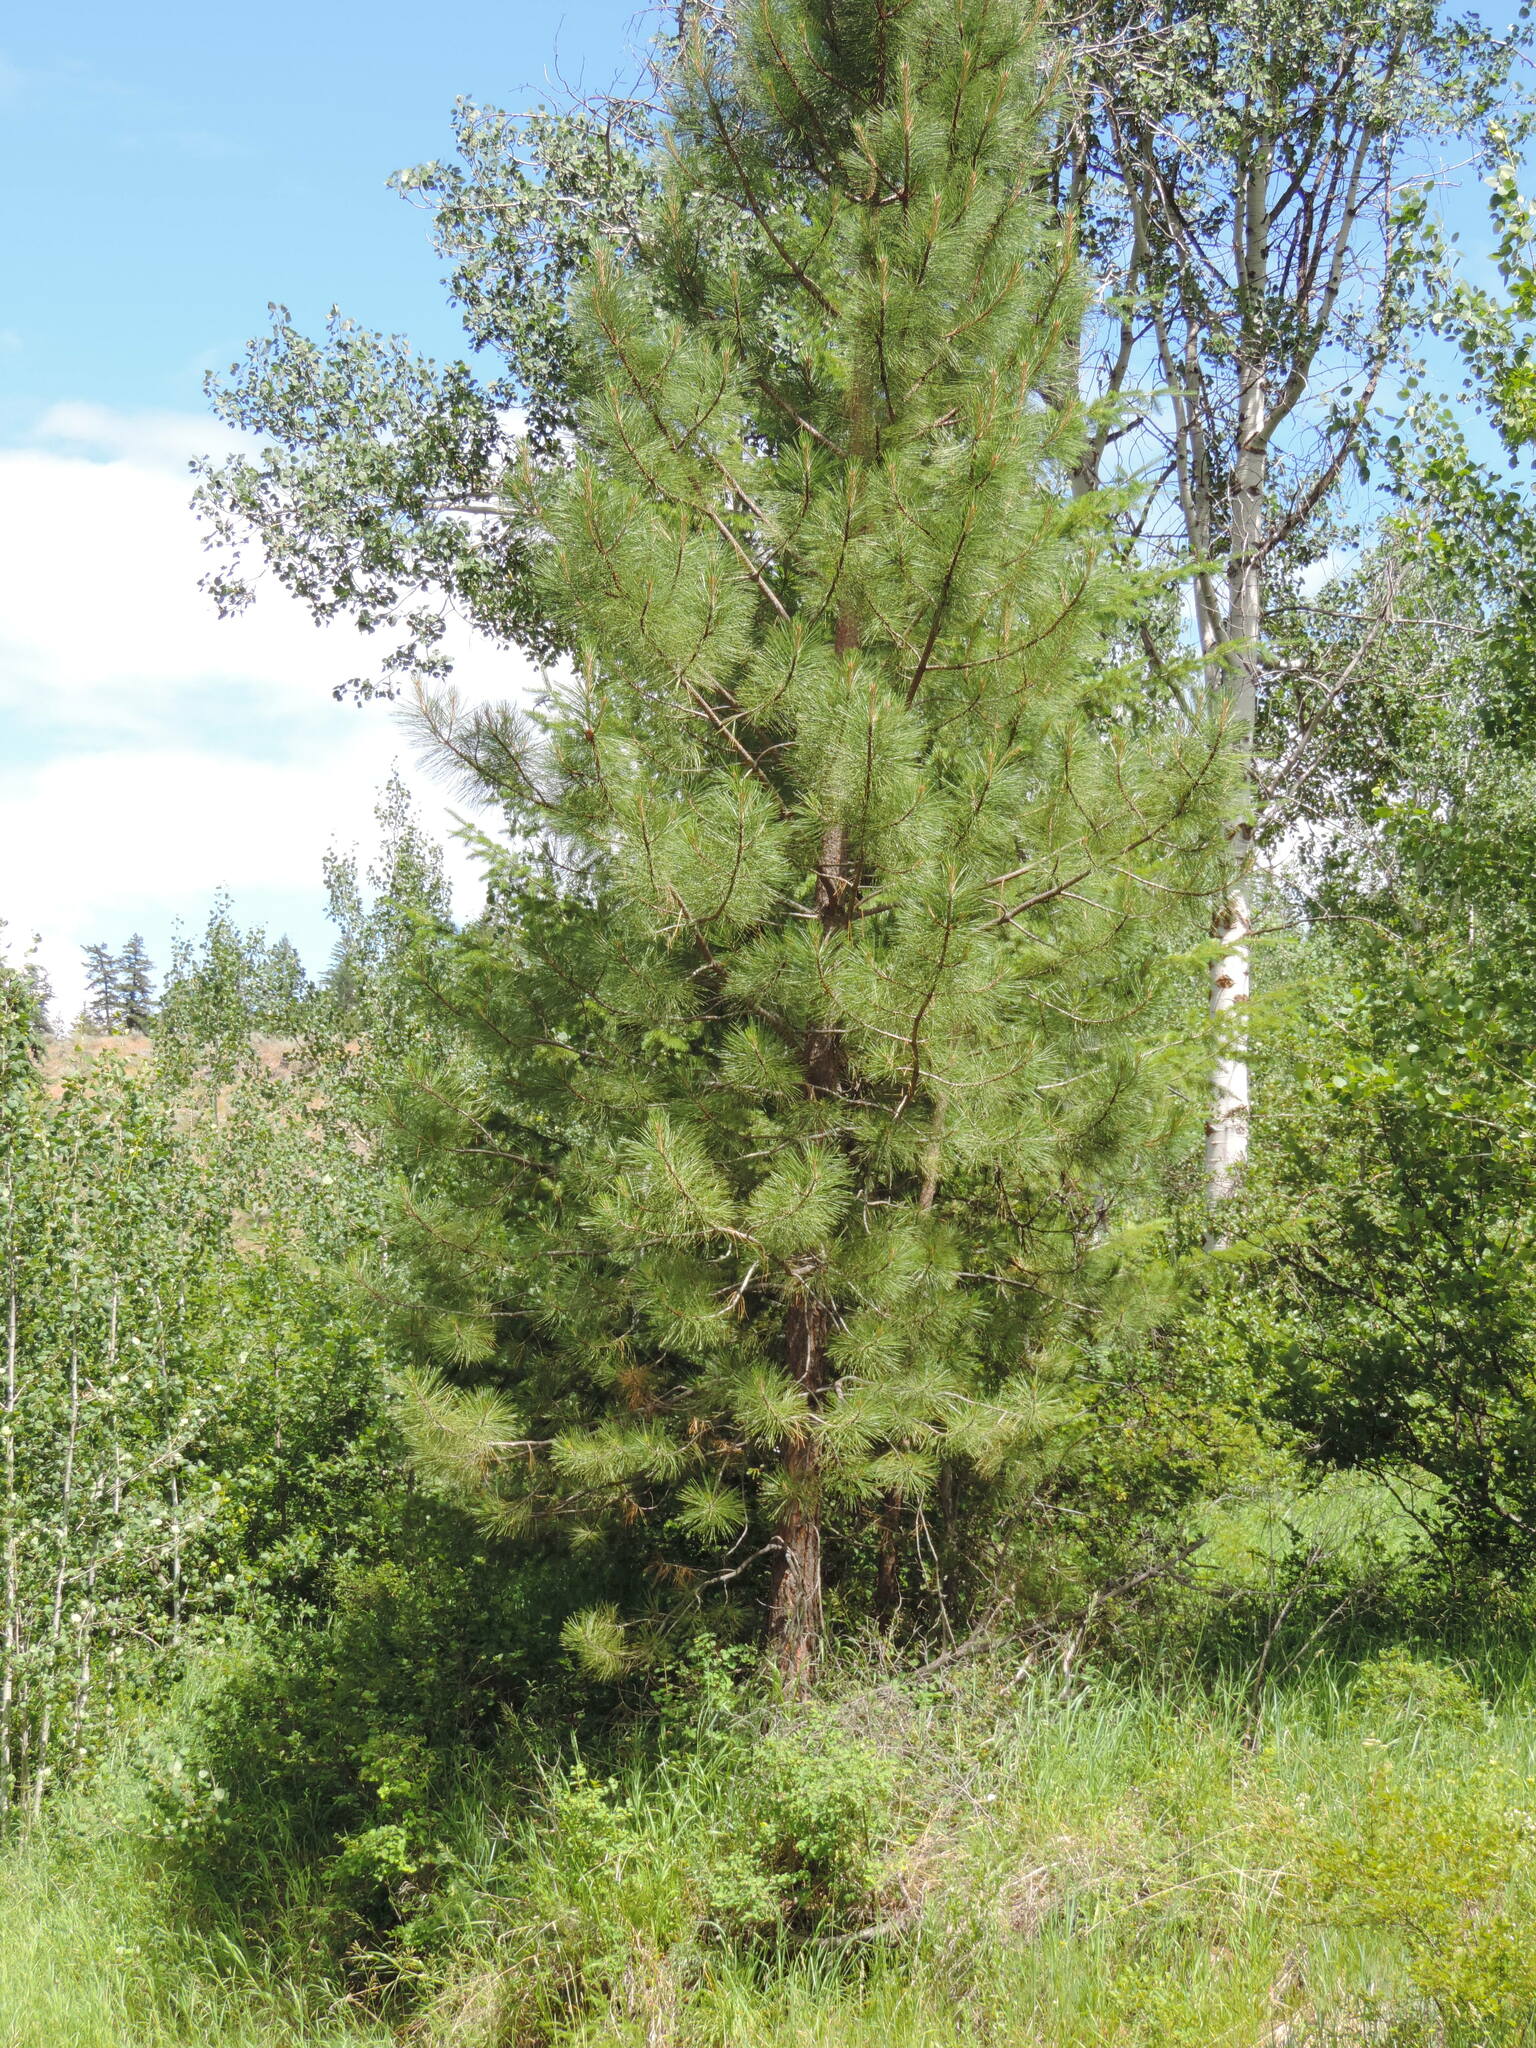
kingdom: Plantae
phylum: Tracheophyta
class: Pinopsida
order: Pinales
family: Pinaceae
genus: Pinus
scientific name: Pinus ponderosa
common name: Western yellow-pine
